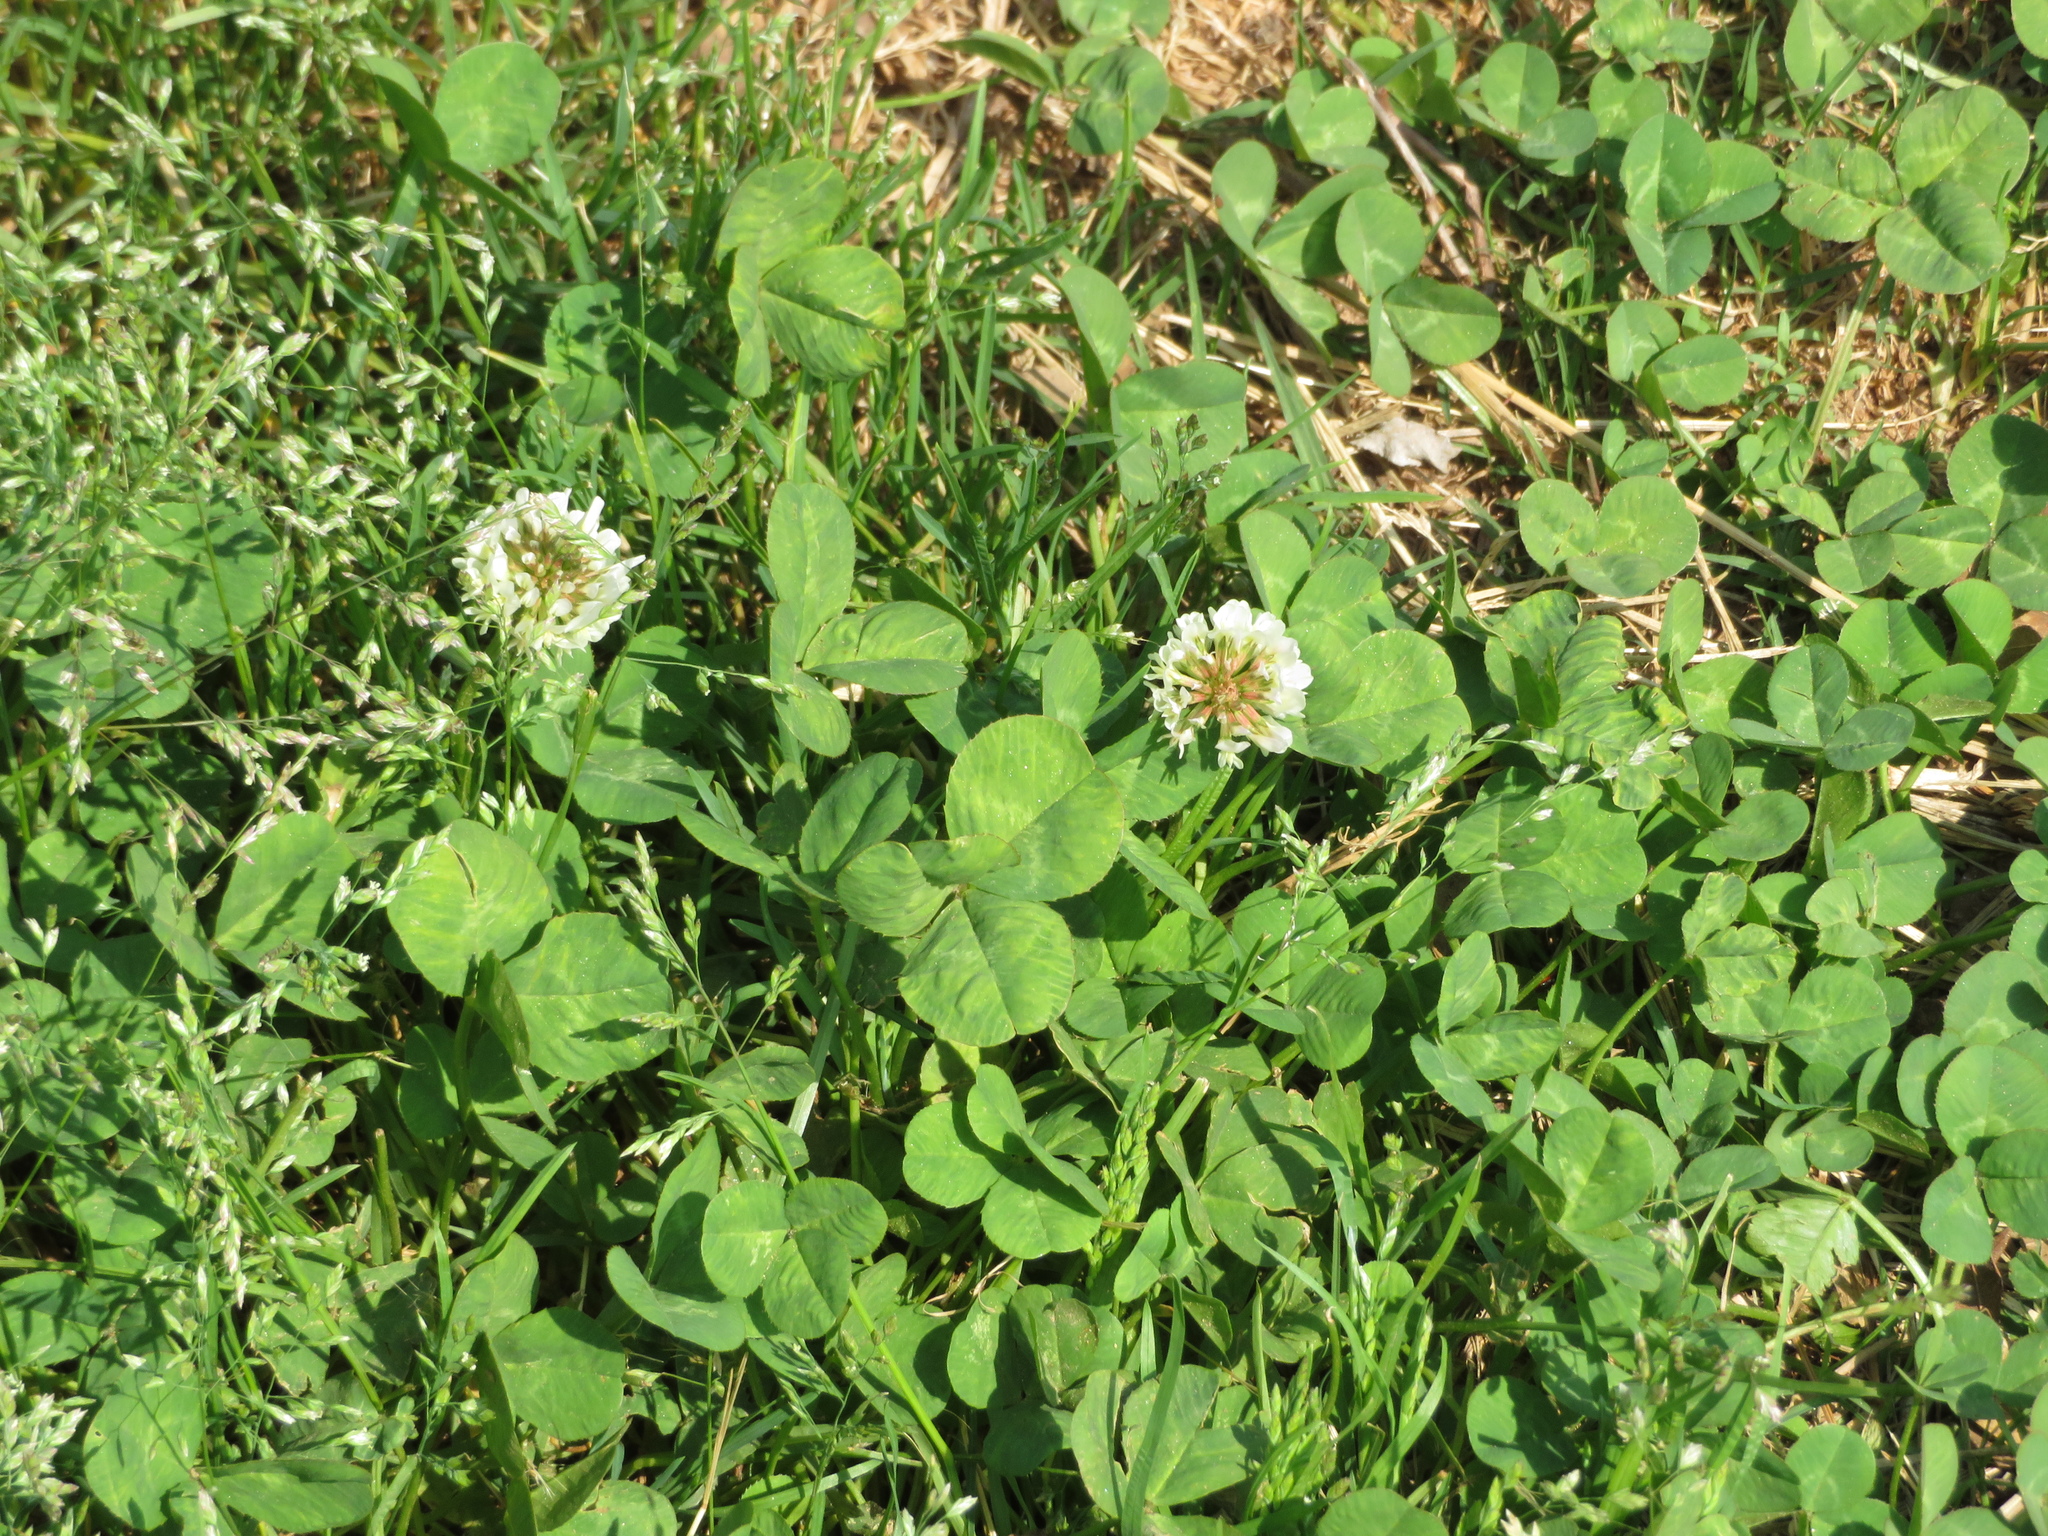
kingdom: Plantae
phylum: Tracheophyta
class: Magnoliopsida
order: Fabales
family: Fabaceae
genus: Trifolium
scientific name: Trifolium repens
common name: White clover
